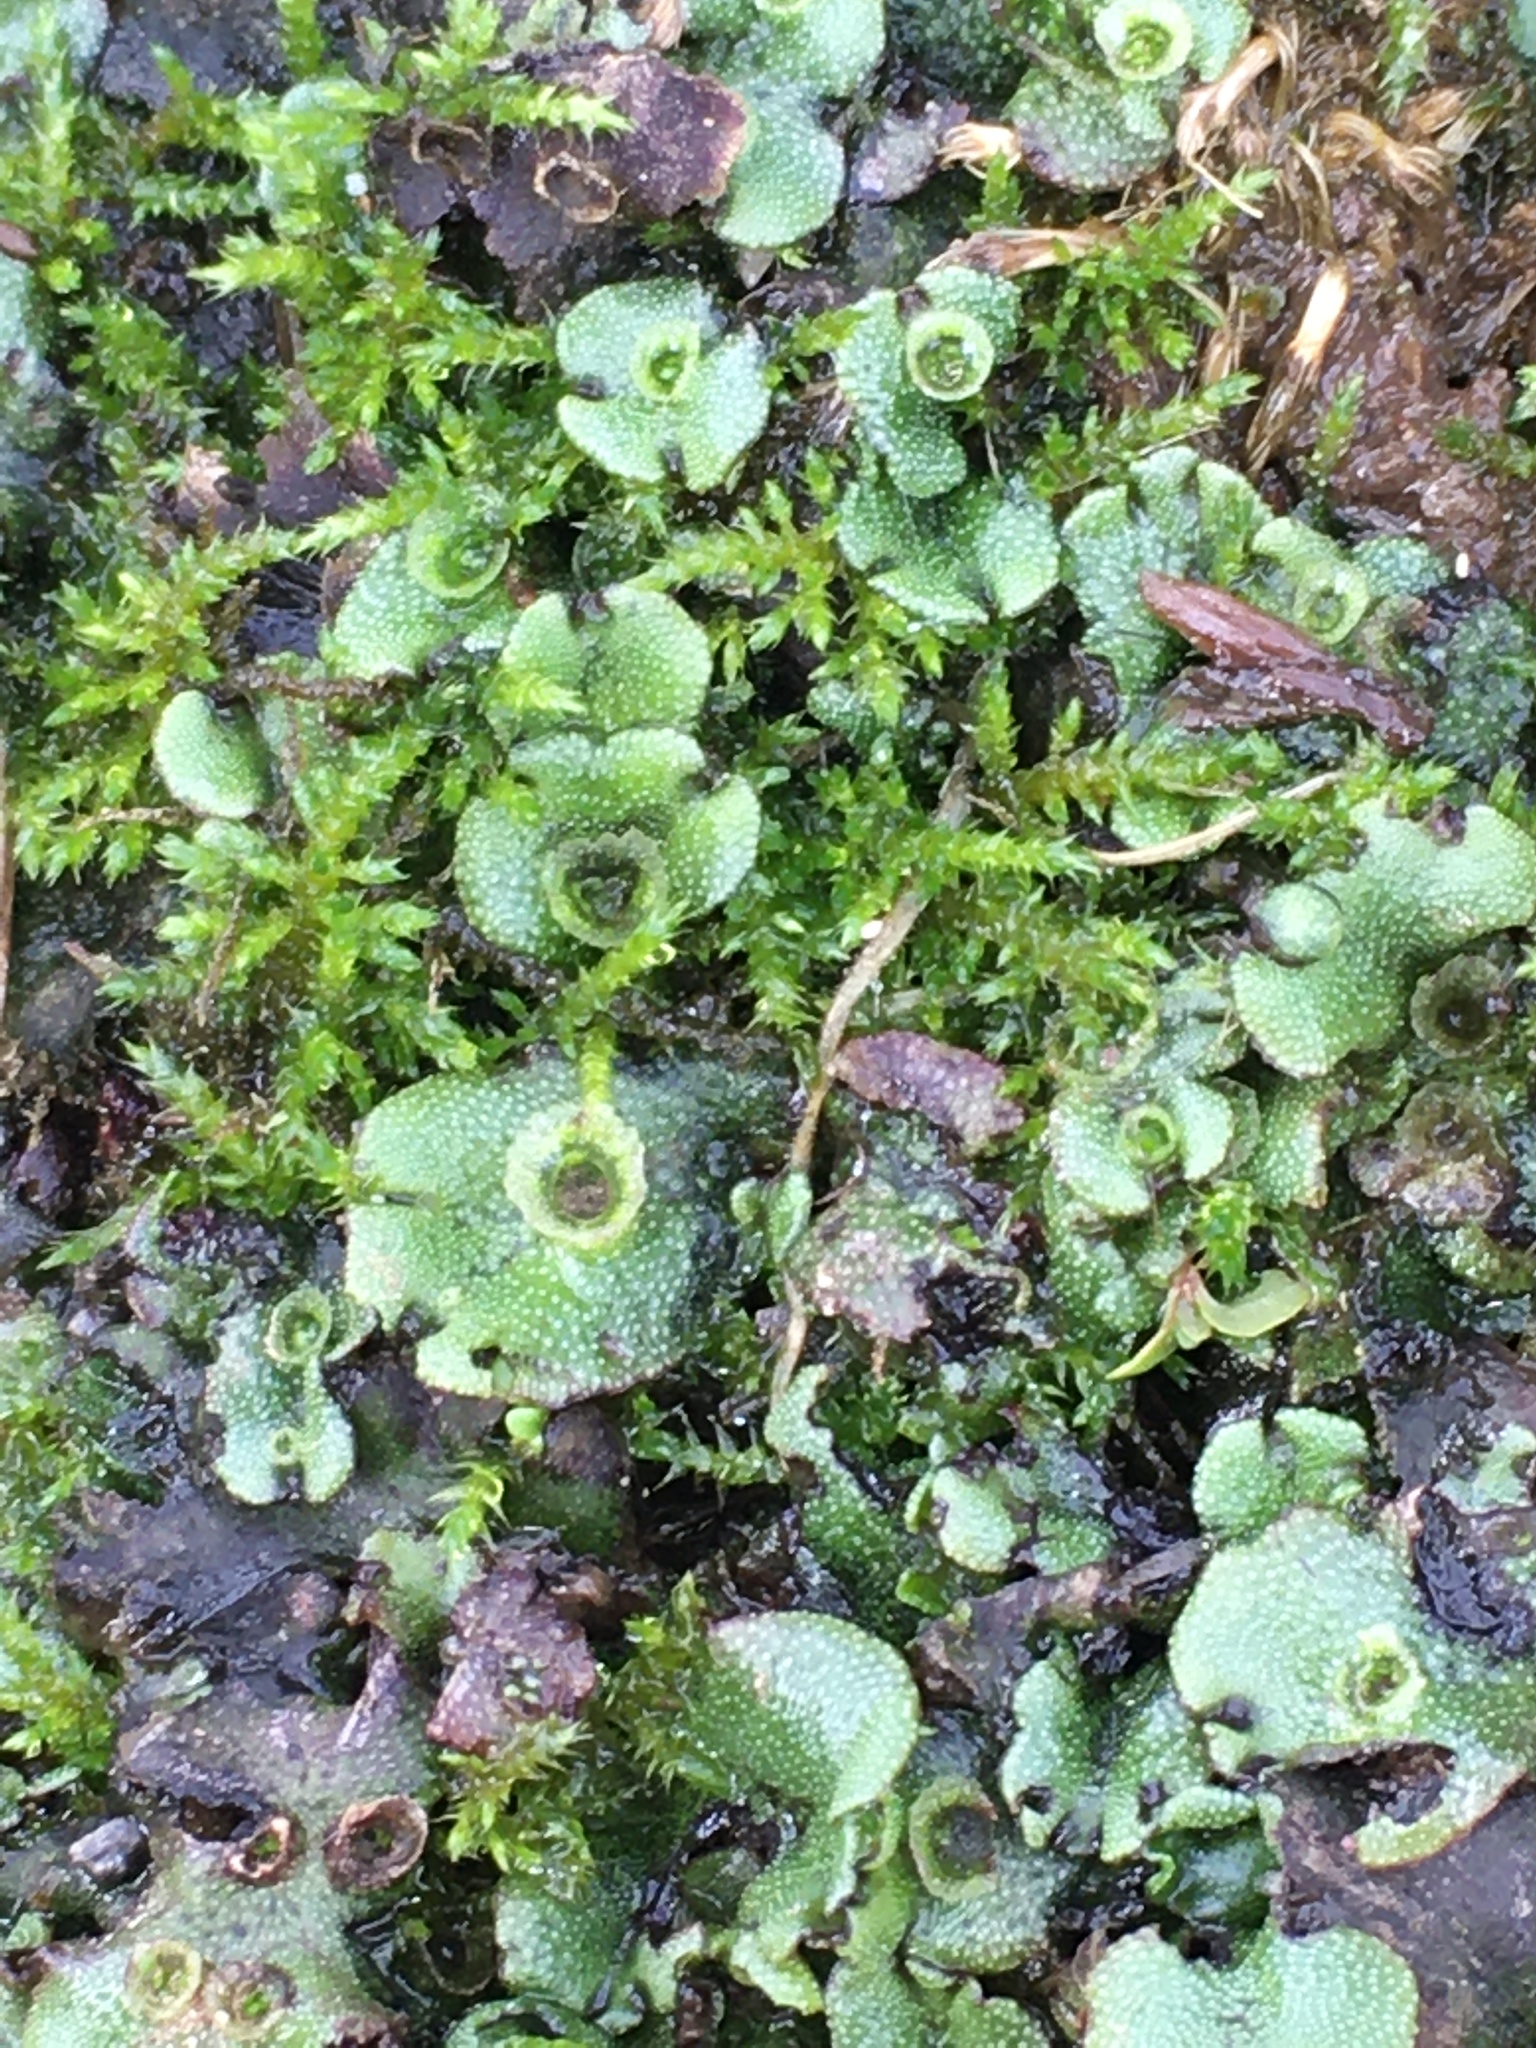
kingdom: Plantae
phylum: Marchantiophyta
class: Marchantiopsida
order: Marchantiales
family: Marchantiaceae
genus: Marchantia
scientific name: Marchantia polymorpha
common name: Common liverwort
